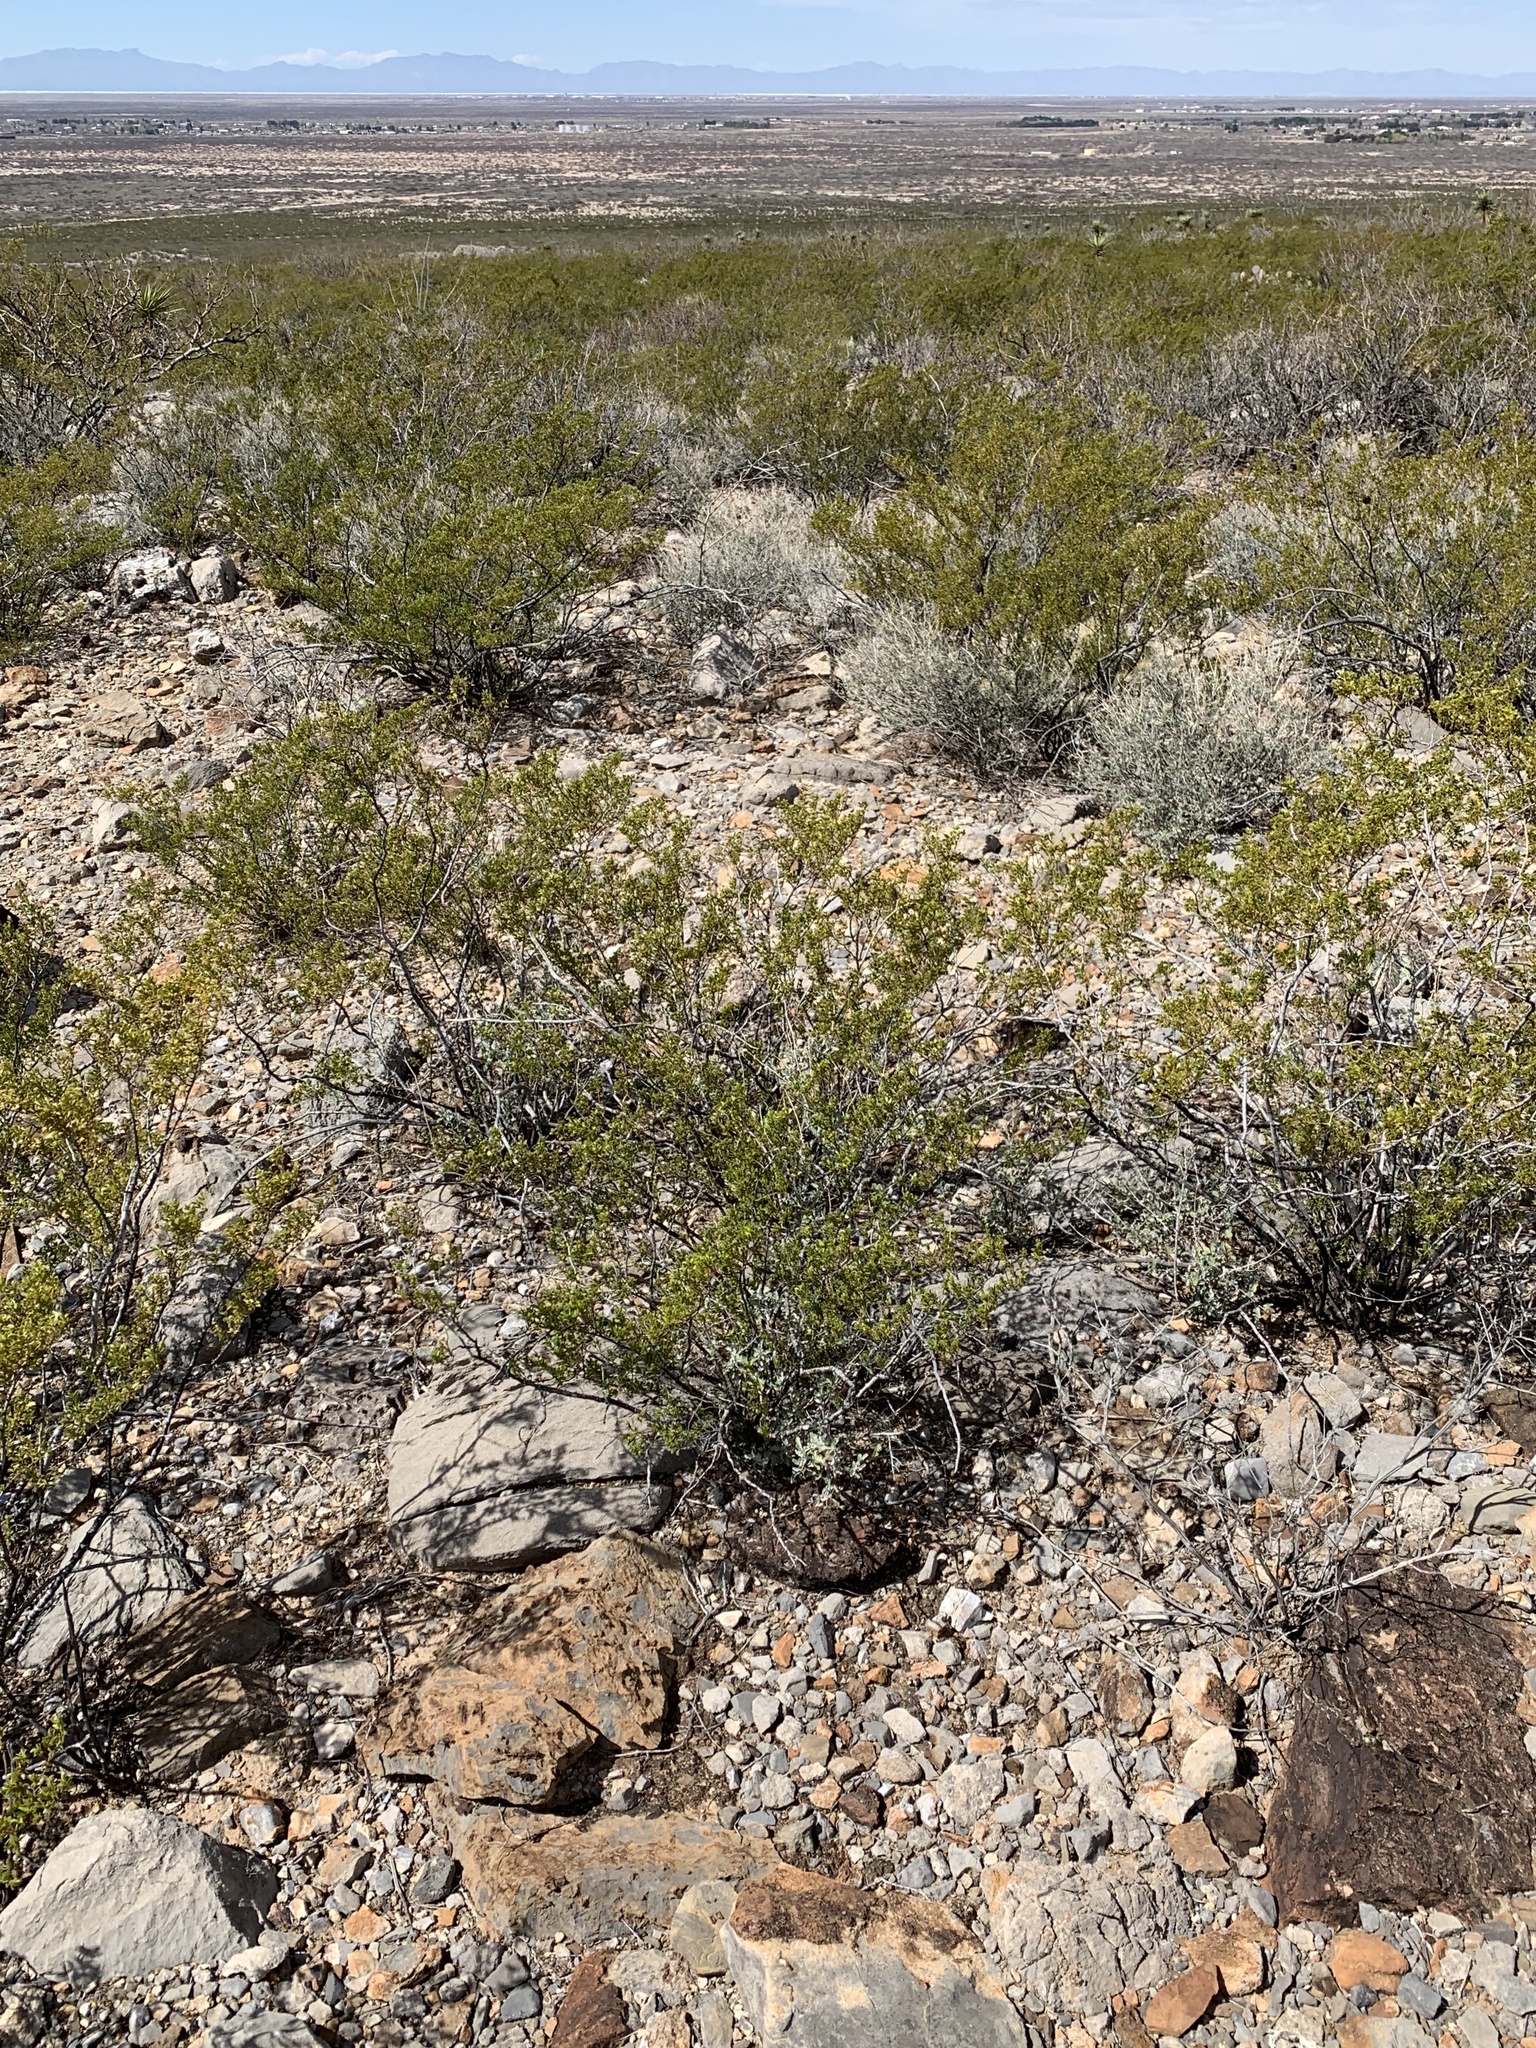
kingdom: Plantae
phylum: Tracheophyta
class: Magnoliopsida
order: Zygophyllales
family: Zygophyllaceae
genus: Larrea
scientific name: Larrea tridentata
